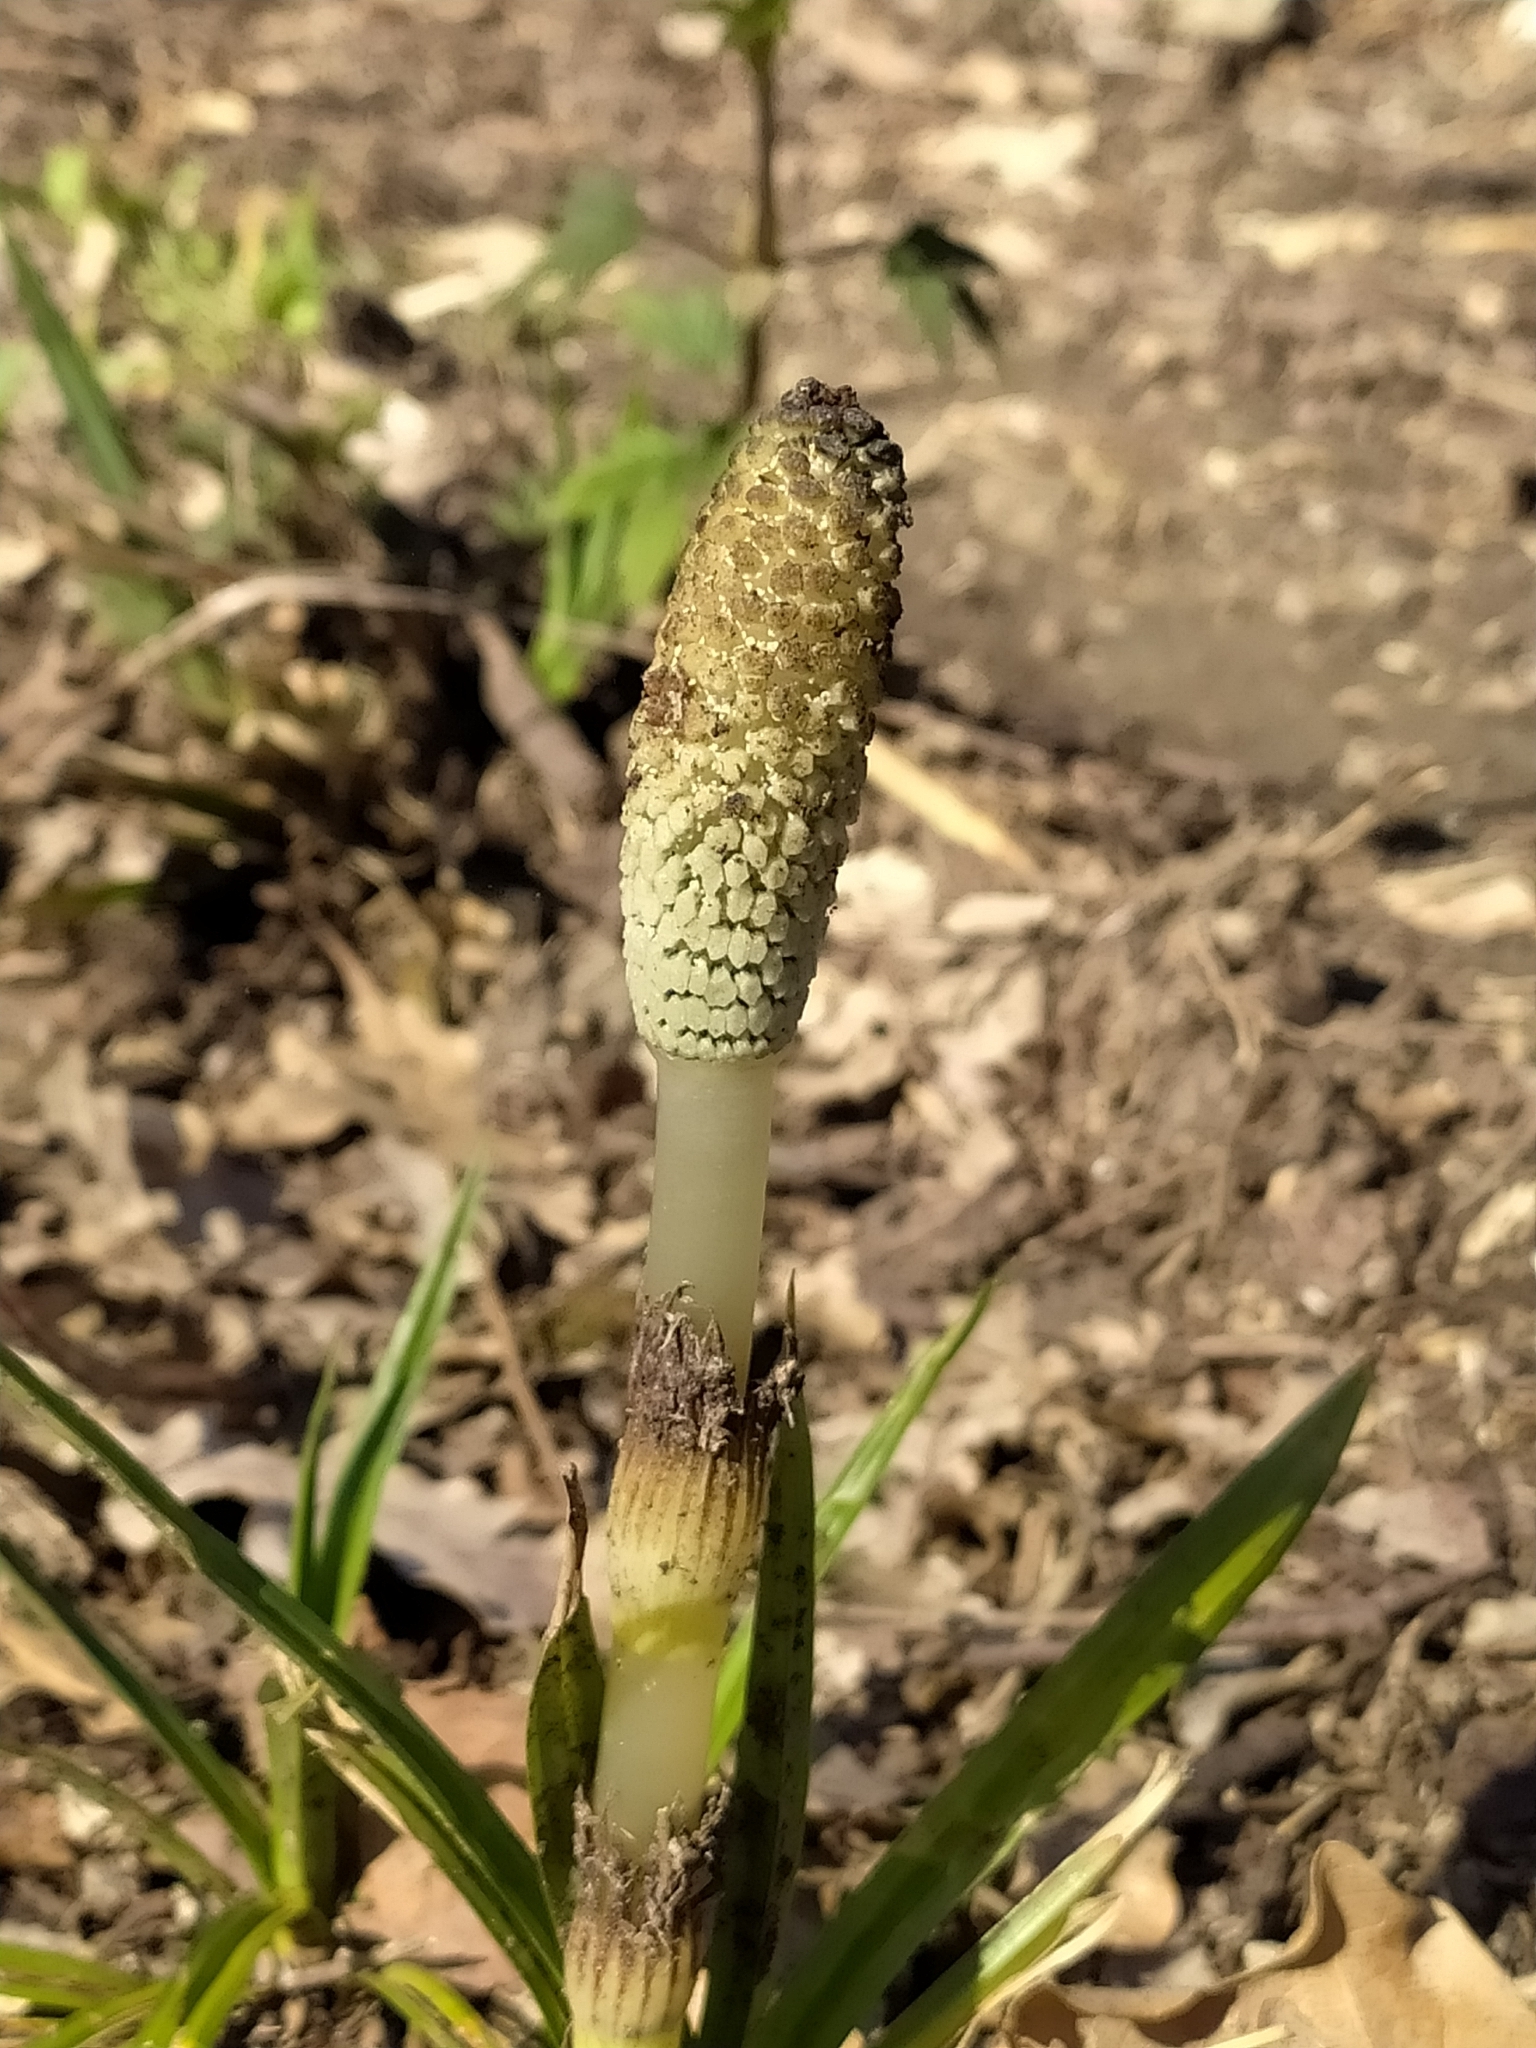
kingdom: Plantae
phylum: Tracheophyta
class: Polypodiopsida
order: Equisetales
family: Equisetaceae
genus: Equisetum
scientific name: Equisetum telmateia
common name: Great horsetail
